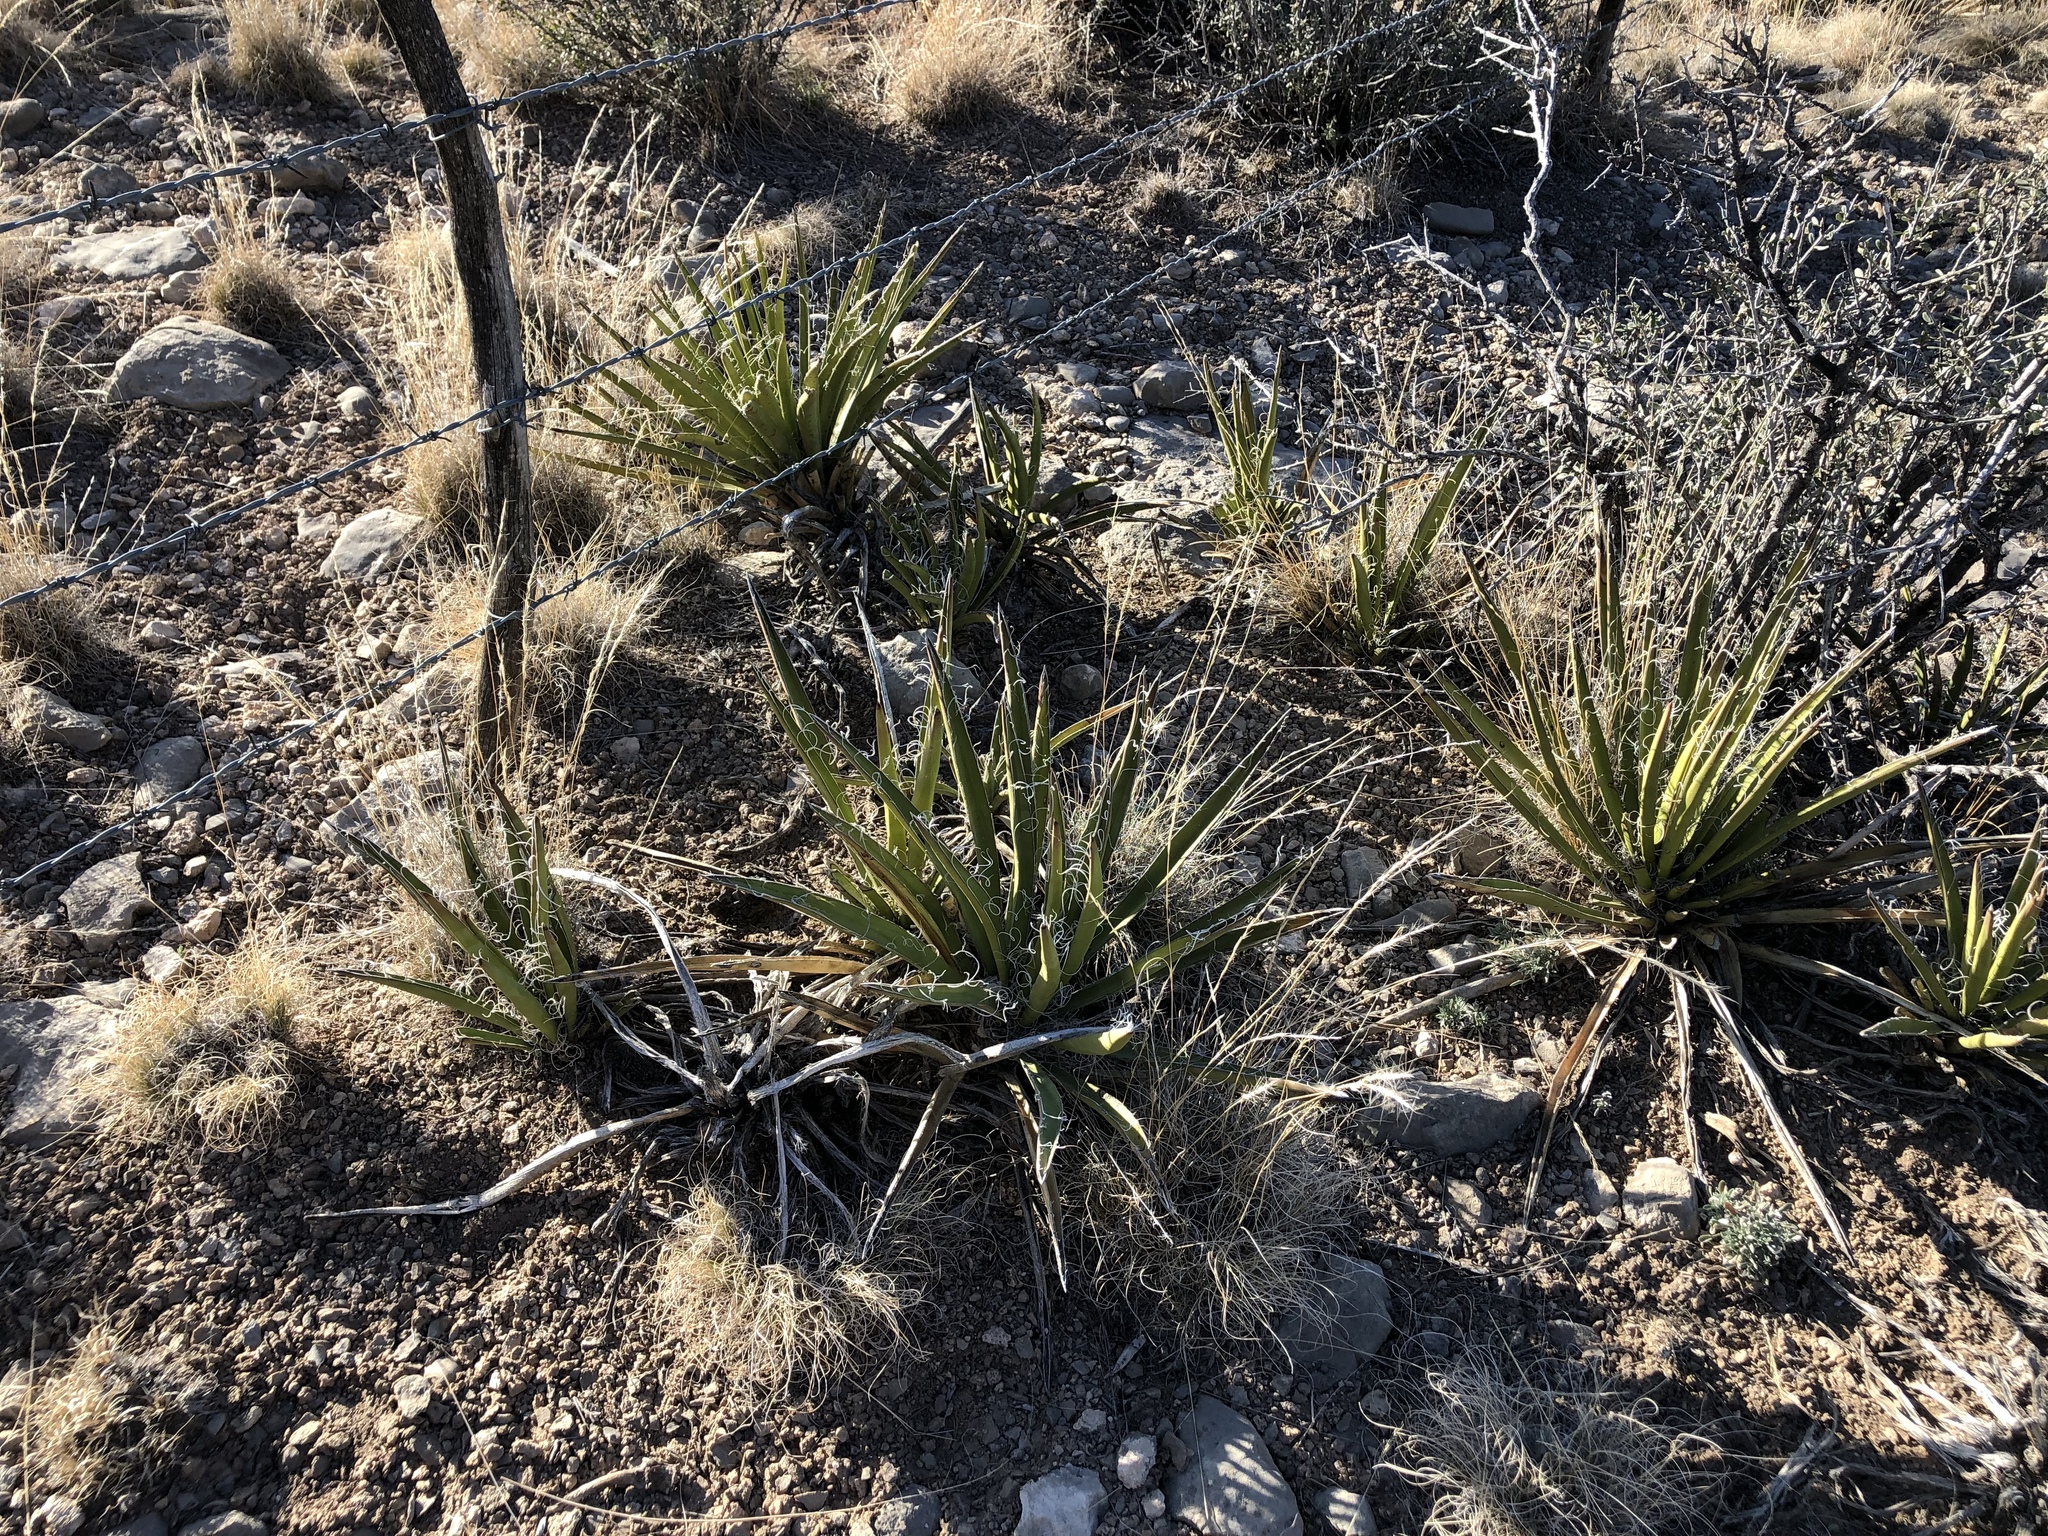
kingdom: Plantae
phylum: Tracheophyta
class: Liliopsida
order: Asparagales
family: Asparagaceae
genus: Yucca
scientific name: Yucca baccata
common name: Banana yucca
